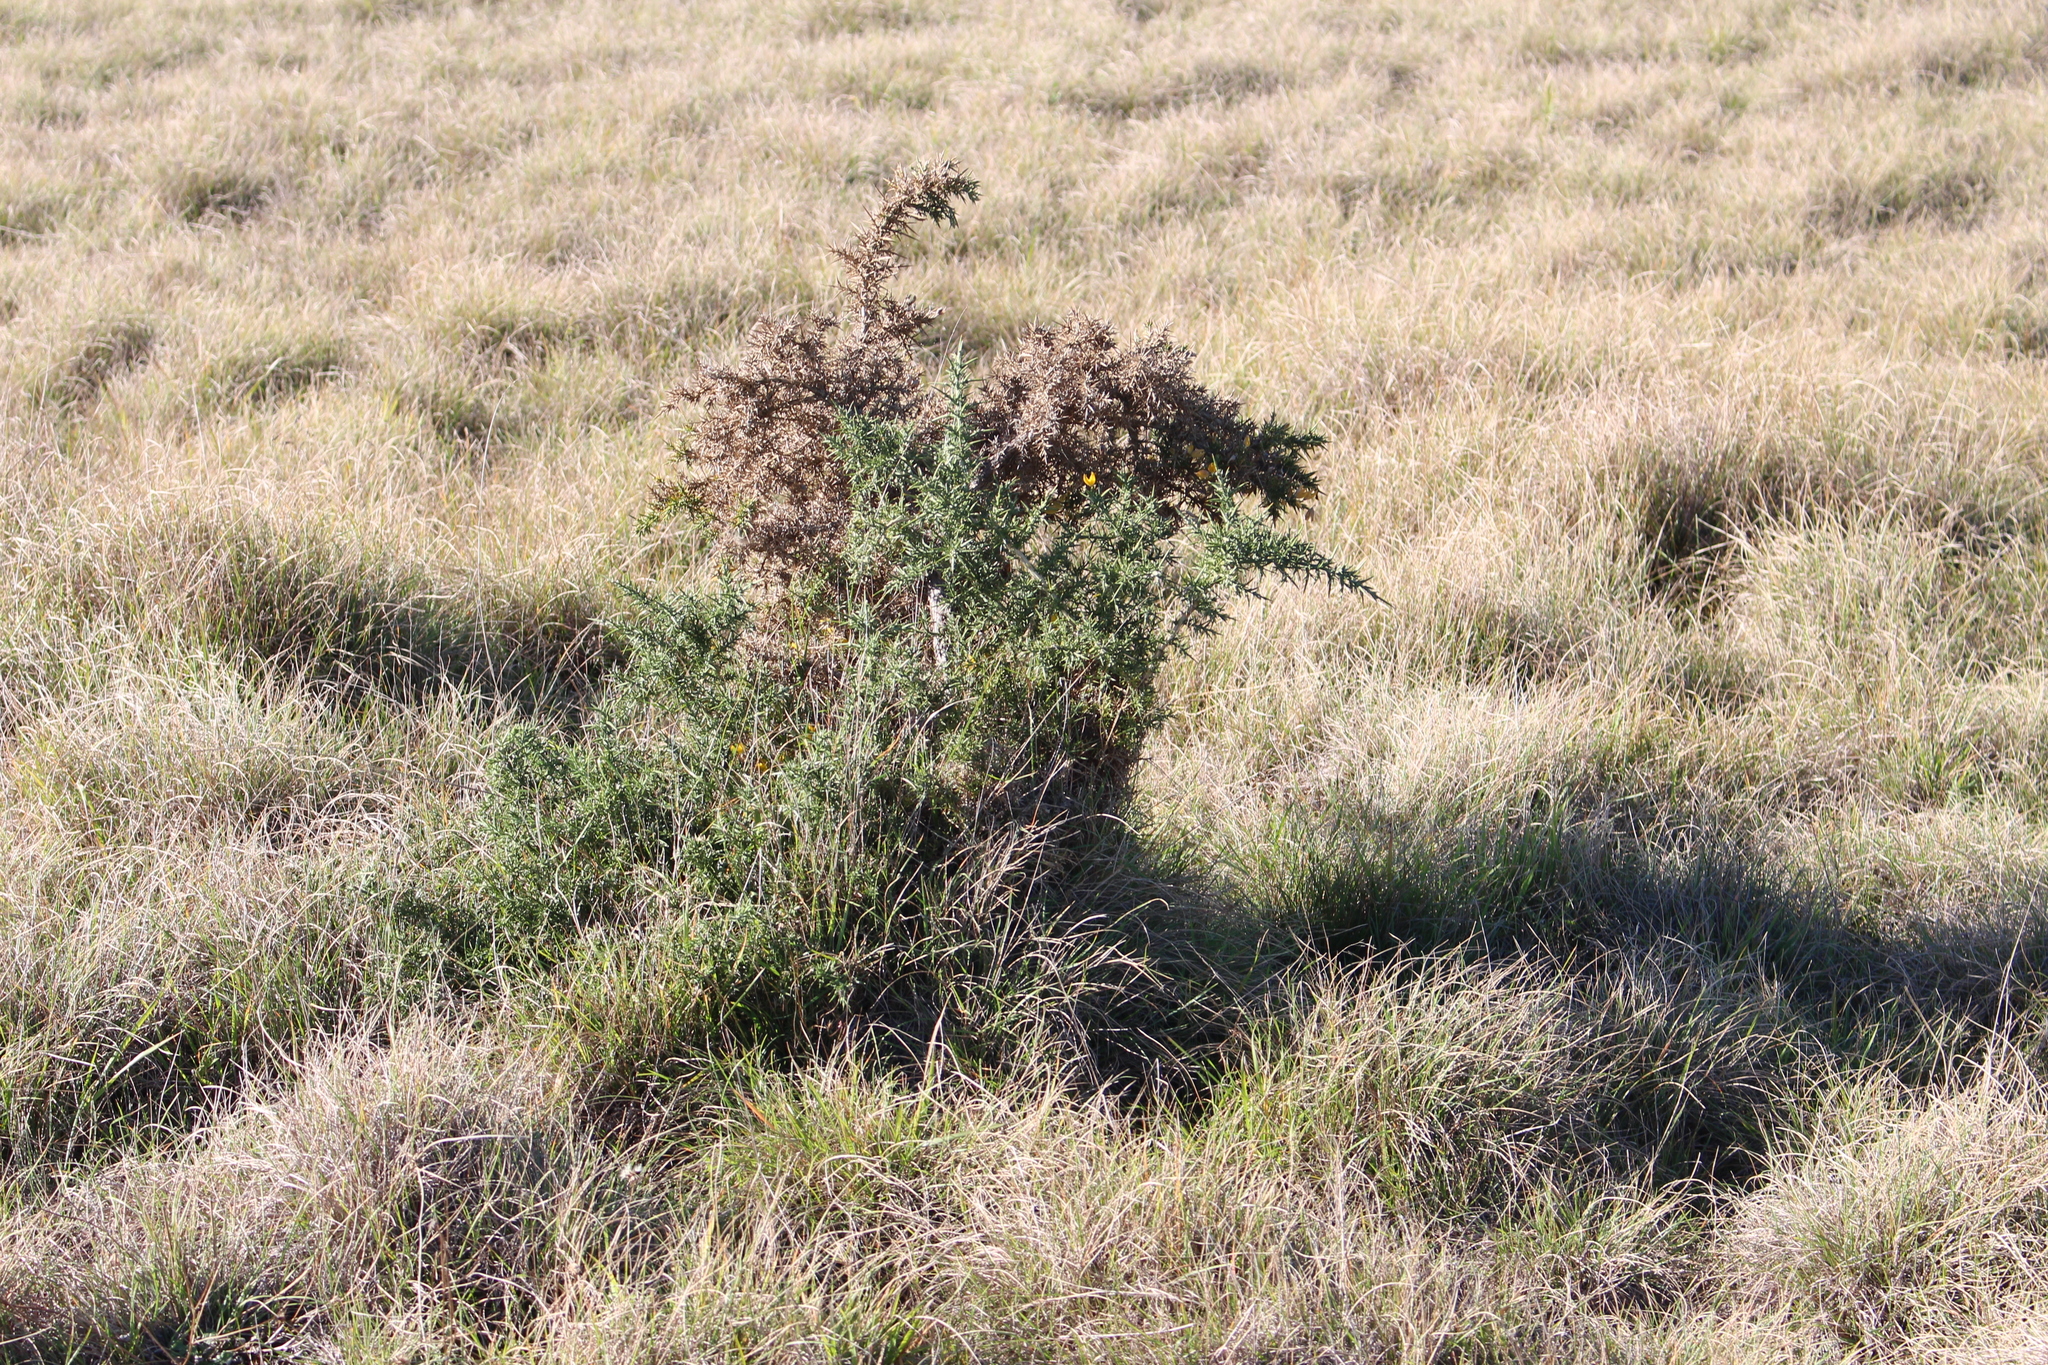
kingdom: Plantae
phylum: Tracheophyta
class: Magnoliopsida
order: Fabales
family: Fabaceae
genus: Ulex
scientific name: Ulex europaeus
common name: Common gorse
